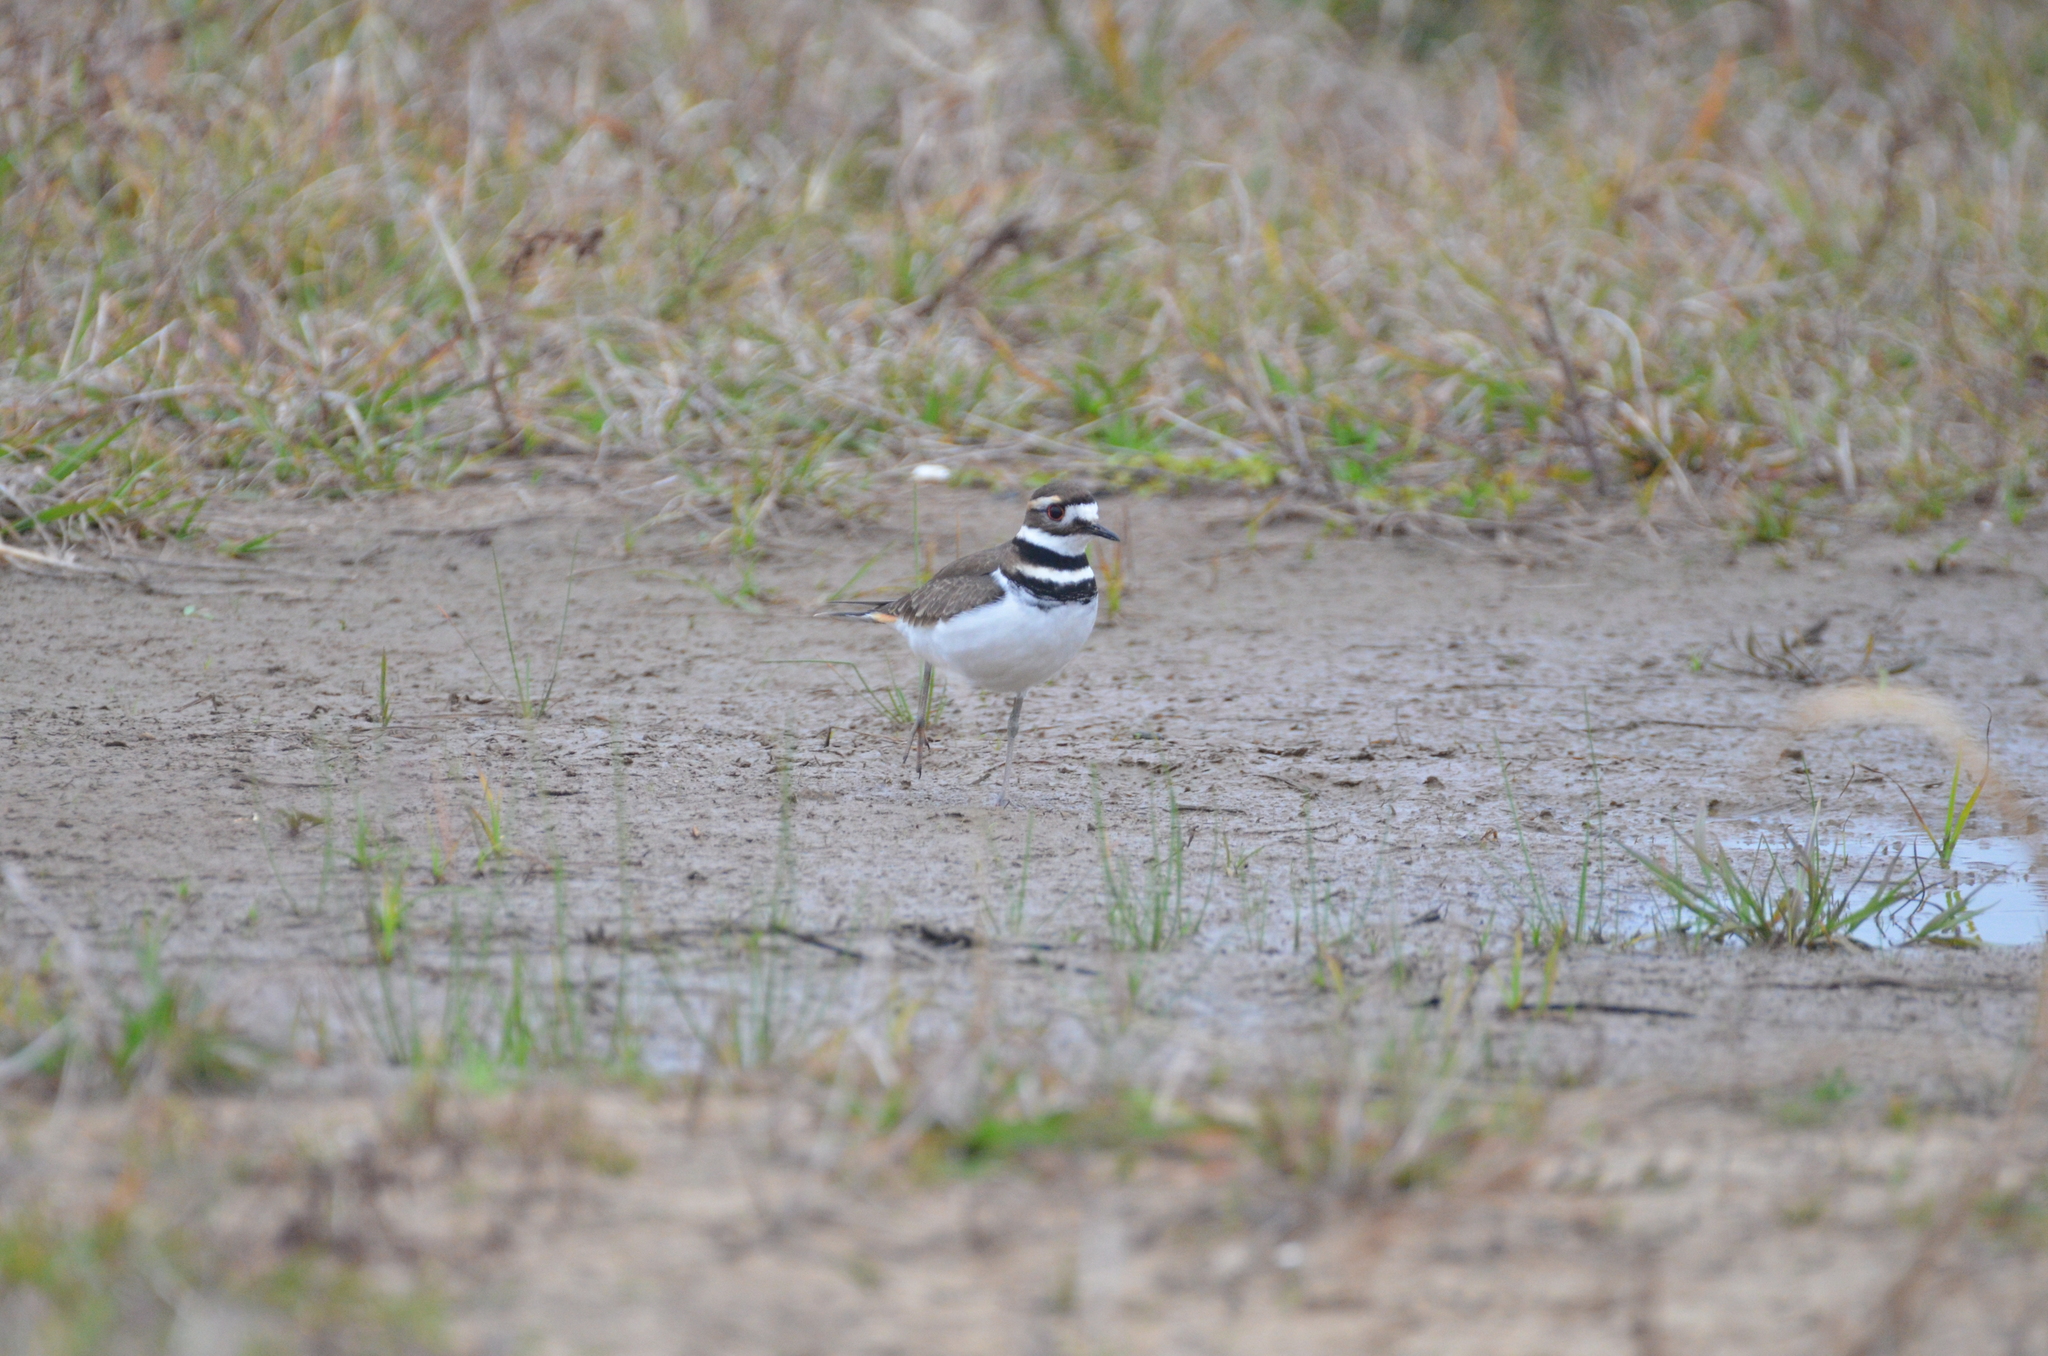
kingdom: Animalia
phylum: Chordata
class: Aves
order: Charadriiformes
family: Charadriidae
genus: Charadrius
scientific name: Charadrius vociferus
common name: Killdeer
